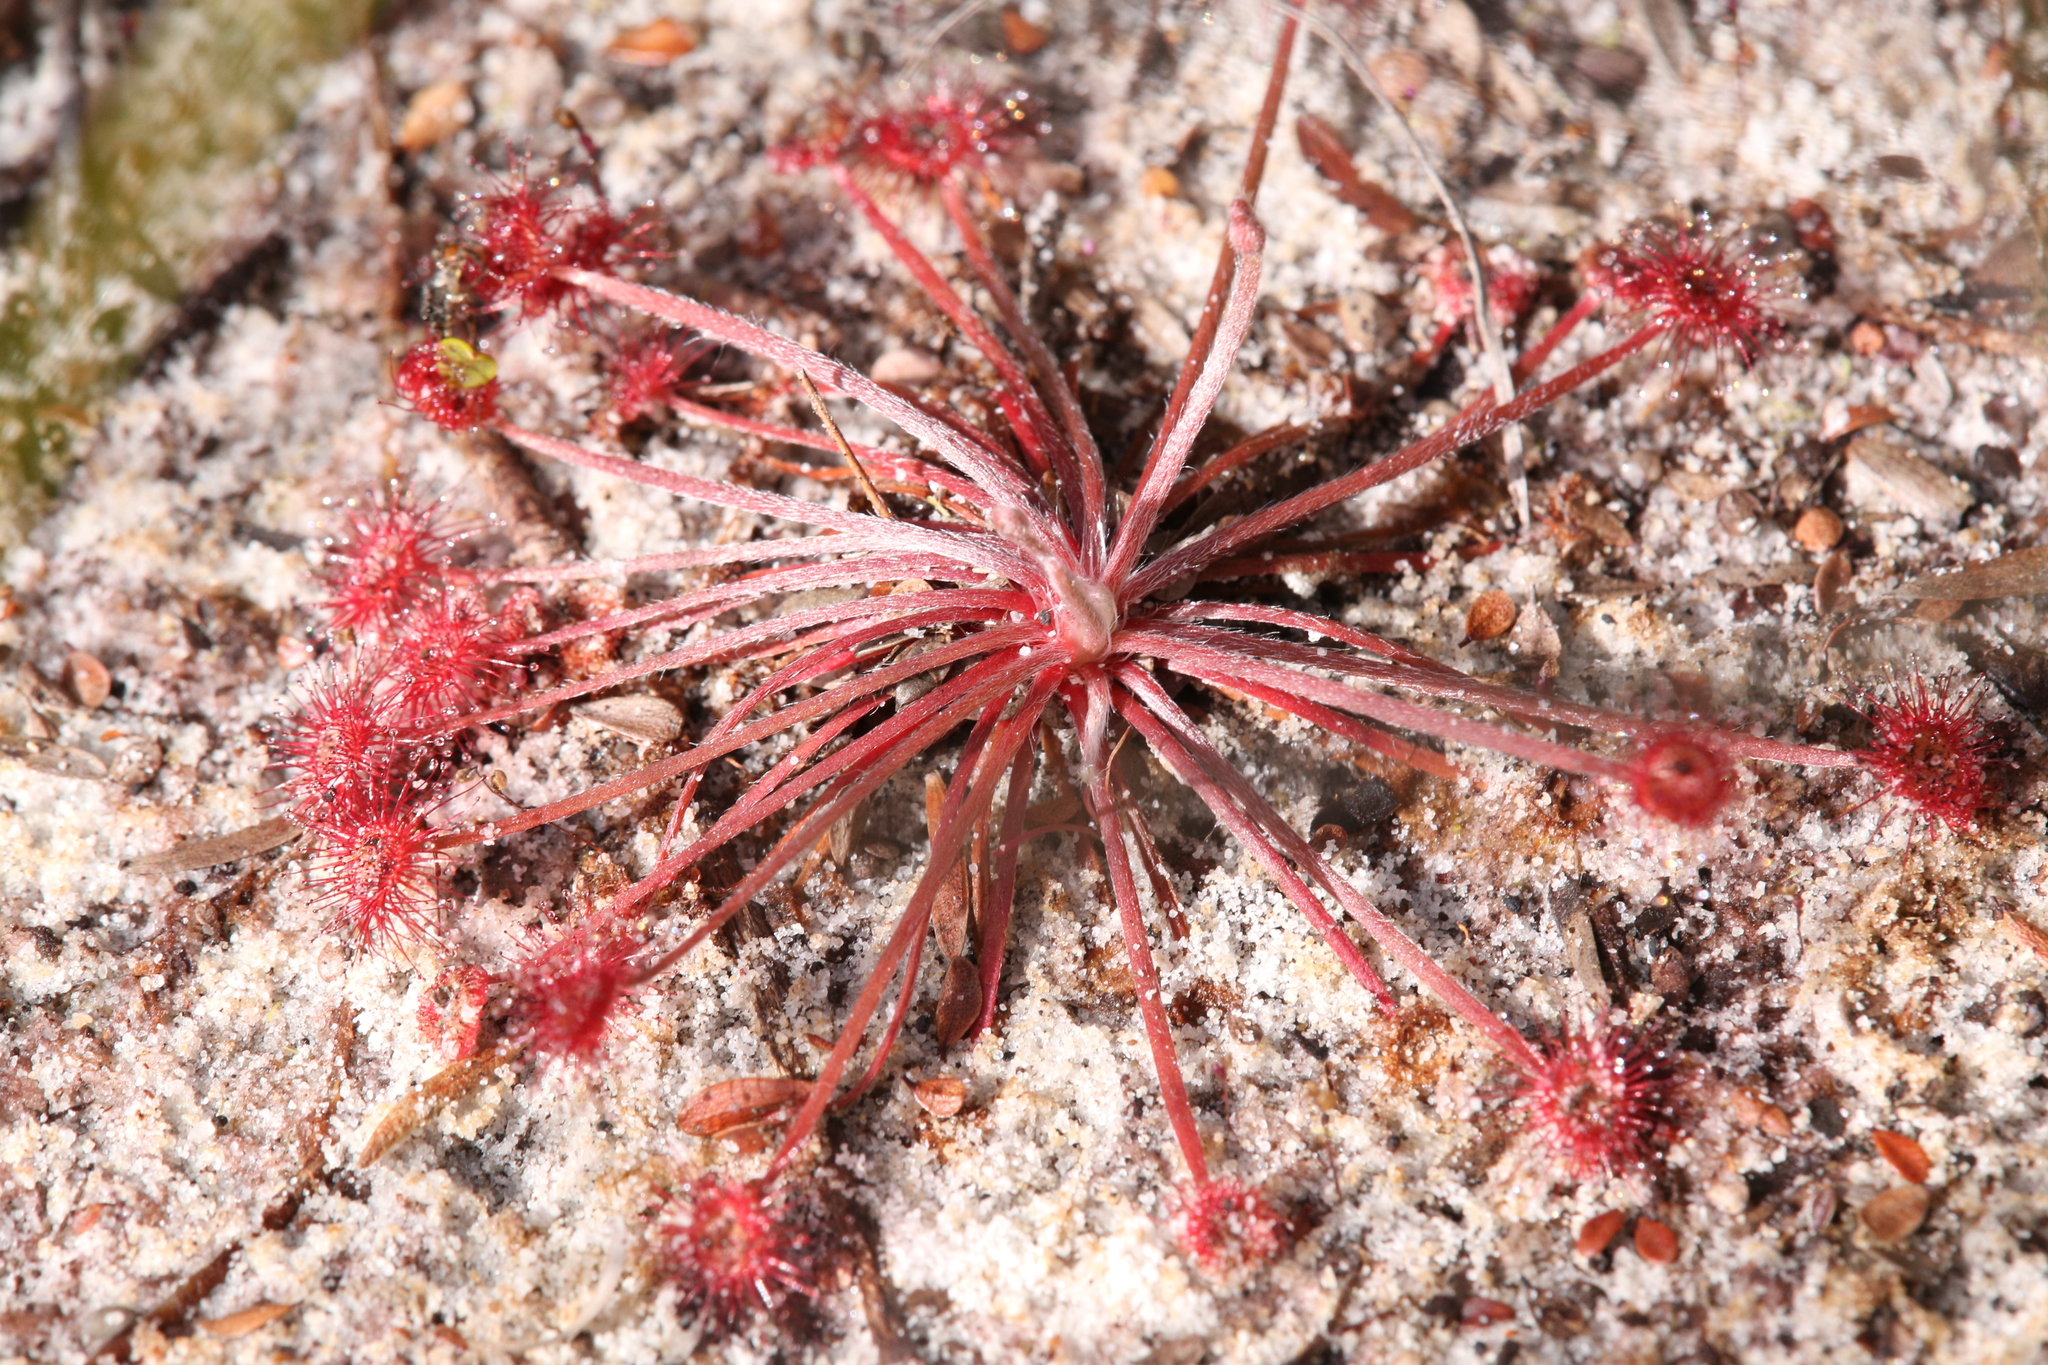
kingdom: Plantae
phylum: Tracheophyta
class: Magnoliopsida
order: Caryophyllales
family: Droseraceae
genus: Drosera
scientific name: Drosera petiolaris
